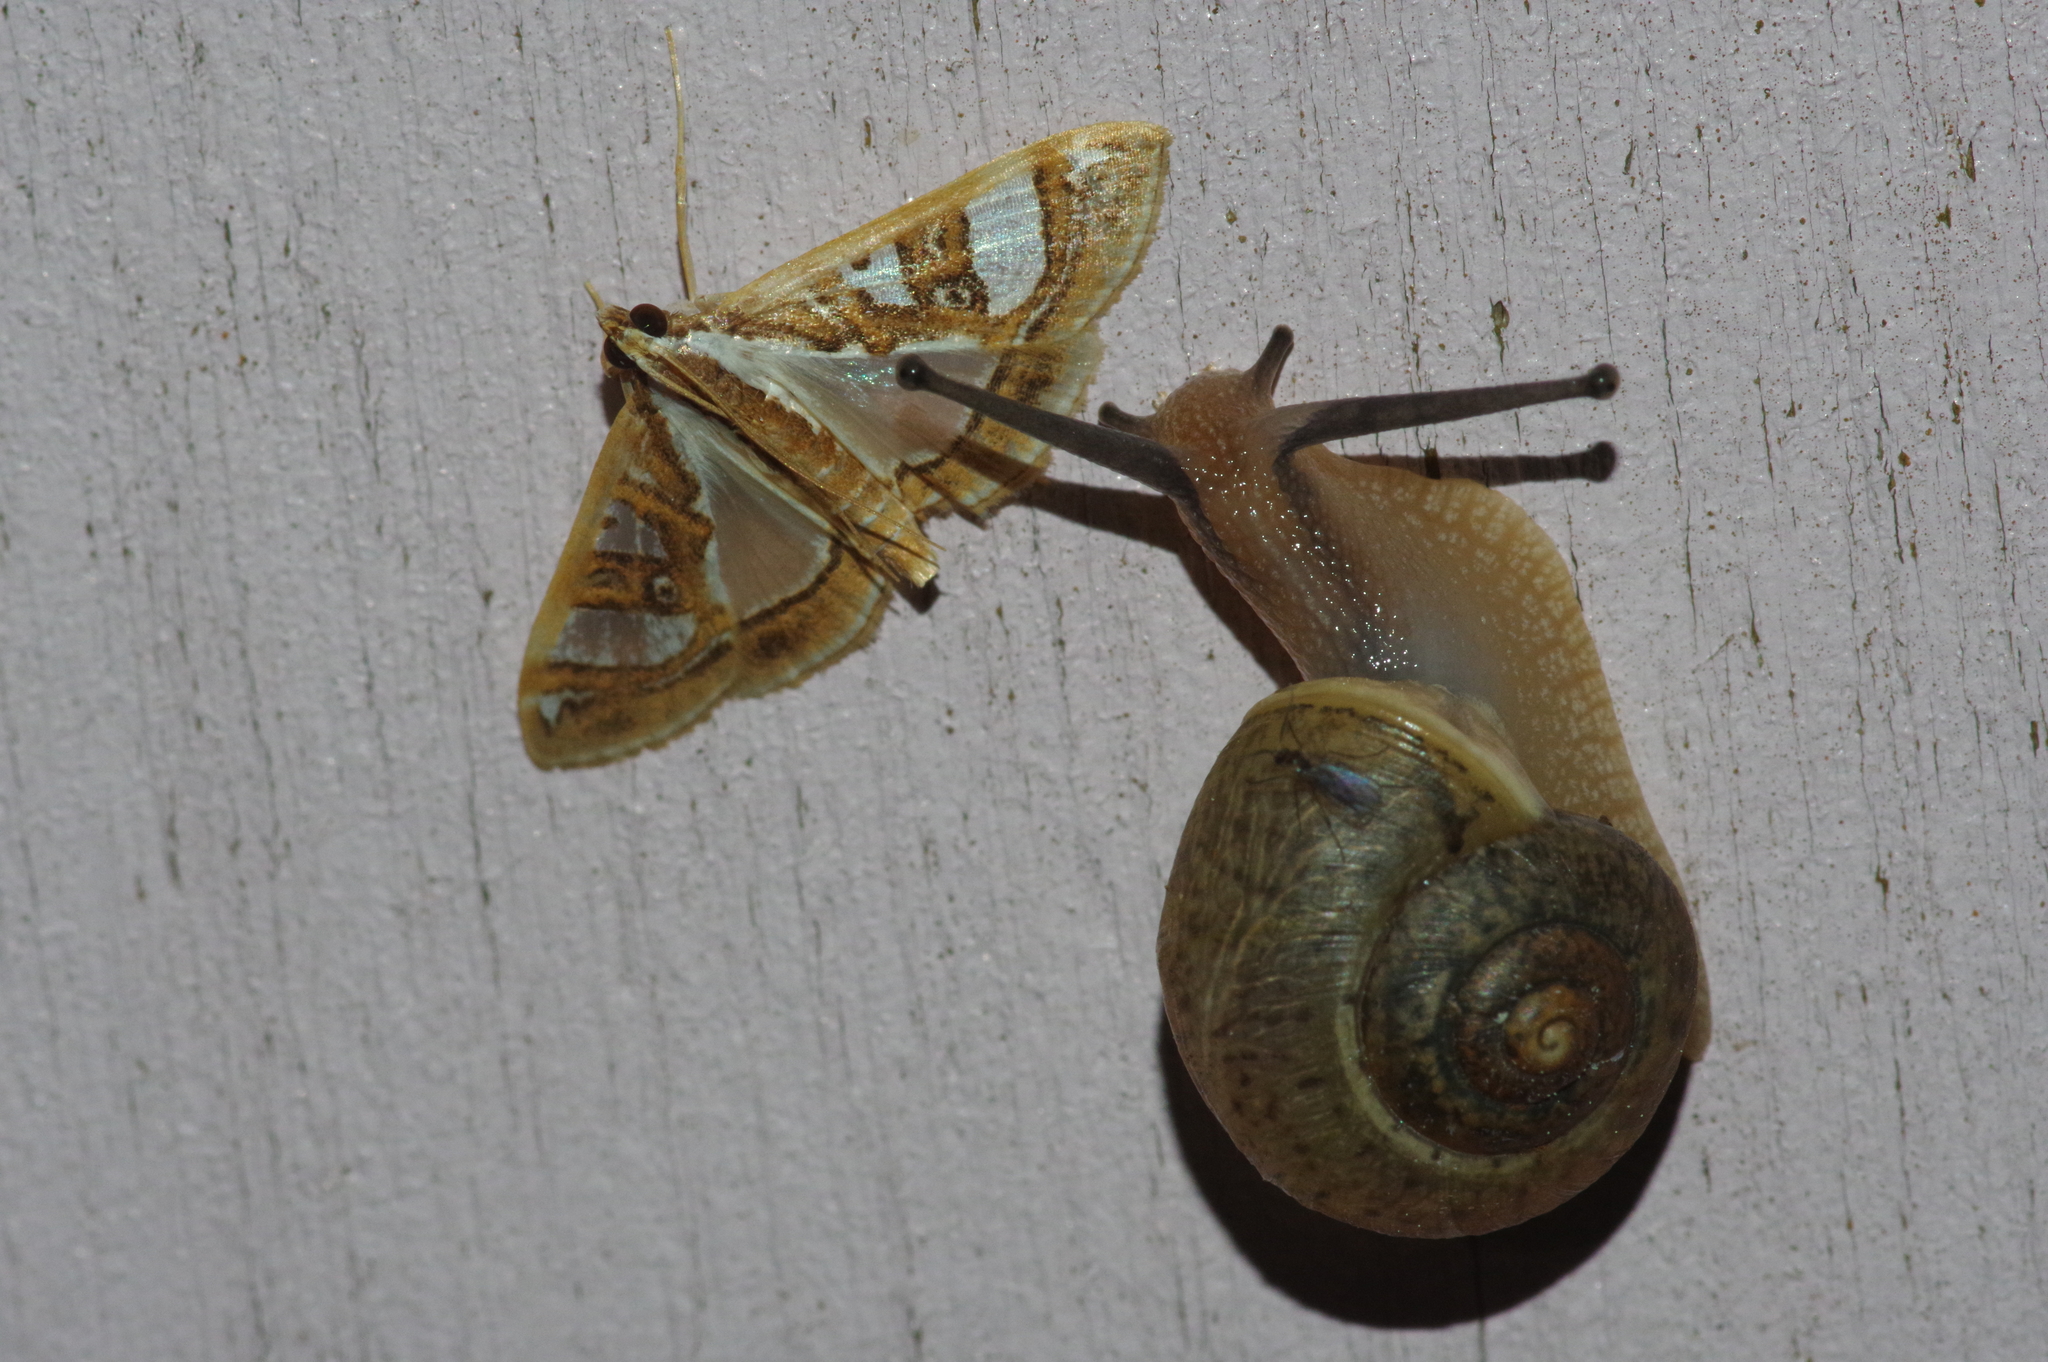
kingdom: Animalia
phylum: Mollusca
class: Gastropoda
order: Stylommatophora
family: Camaenidae
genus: Acusta
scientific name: Acusta despecta
